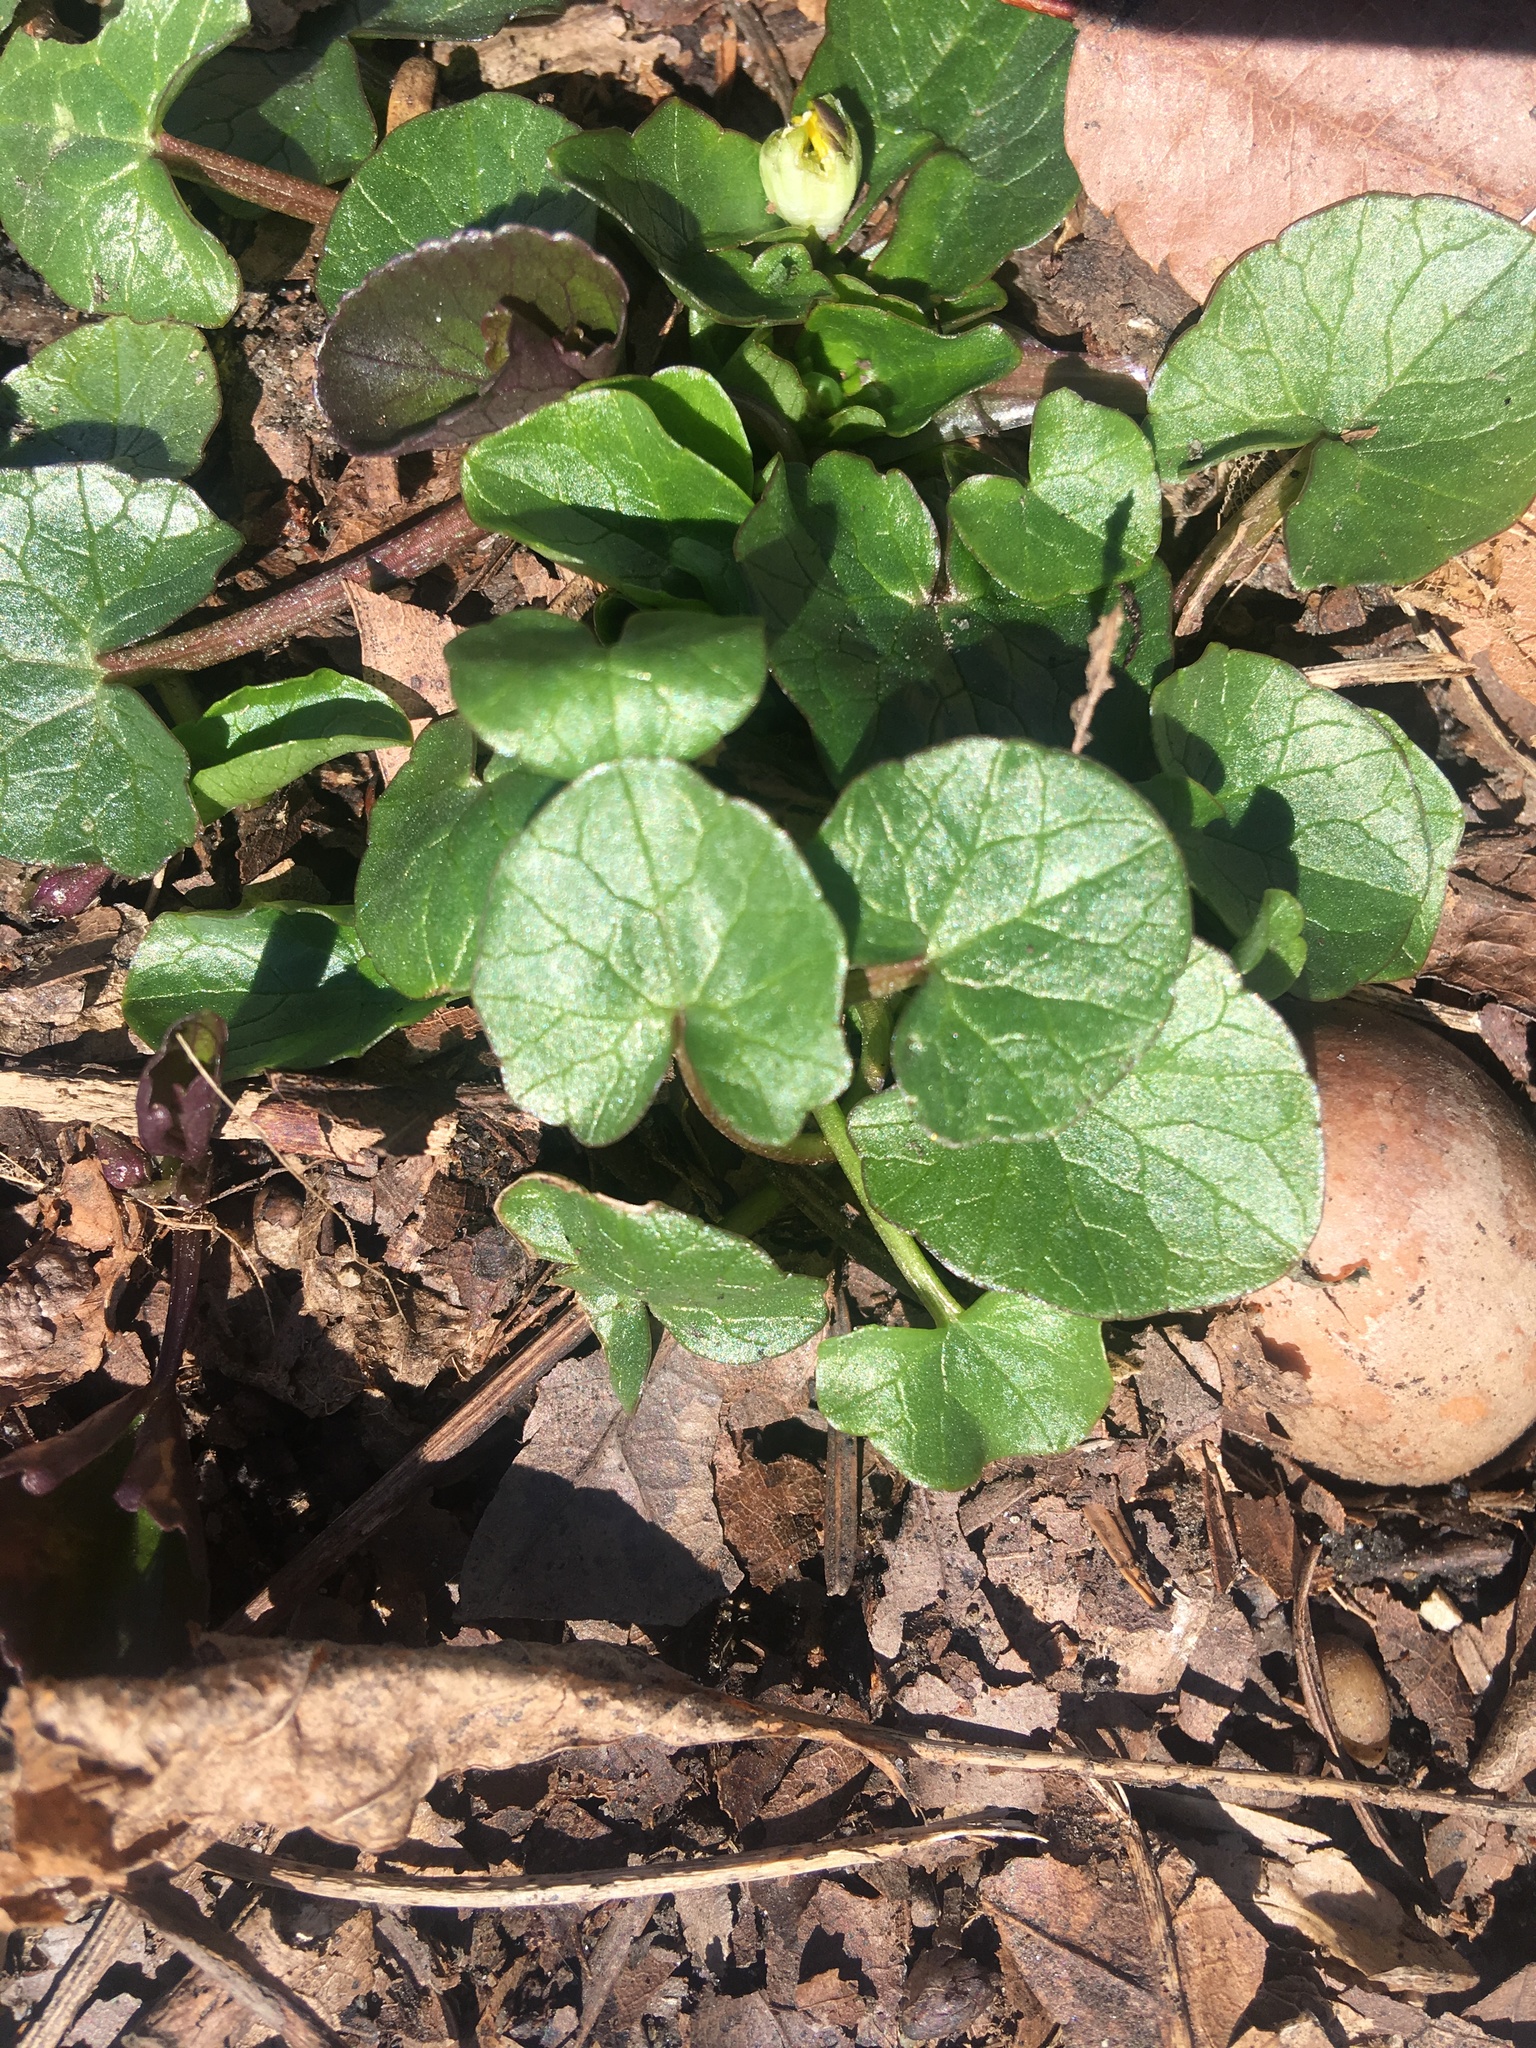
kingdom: Plantae
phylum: Tracheophyta
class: Magnoliopsida
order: Ranunculales
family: Ranunculaceae
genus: Ficaria
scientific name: Ficaria verna
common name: Lesser celandine
